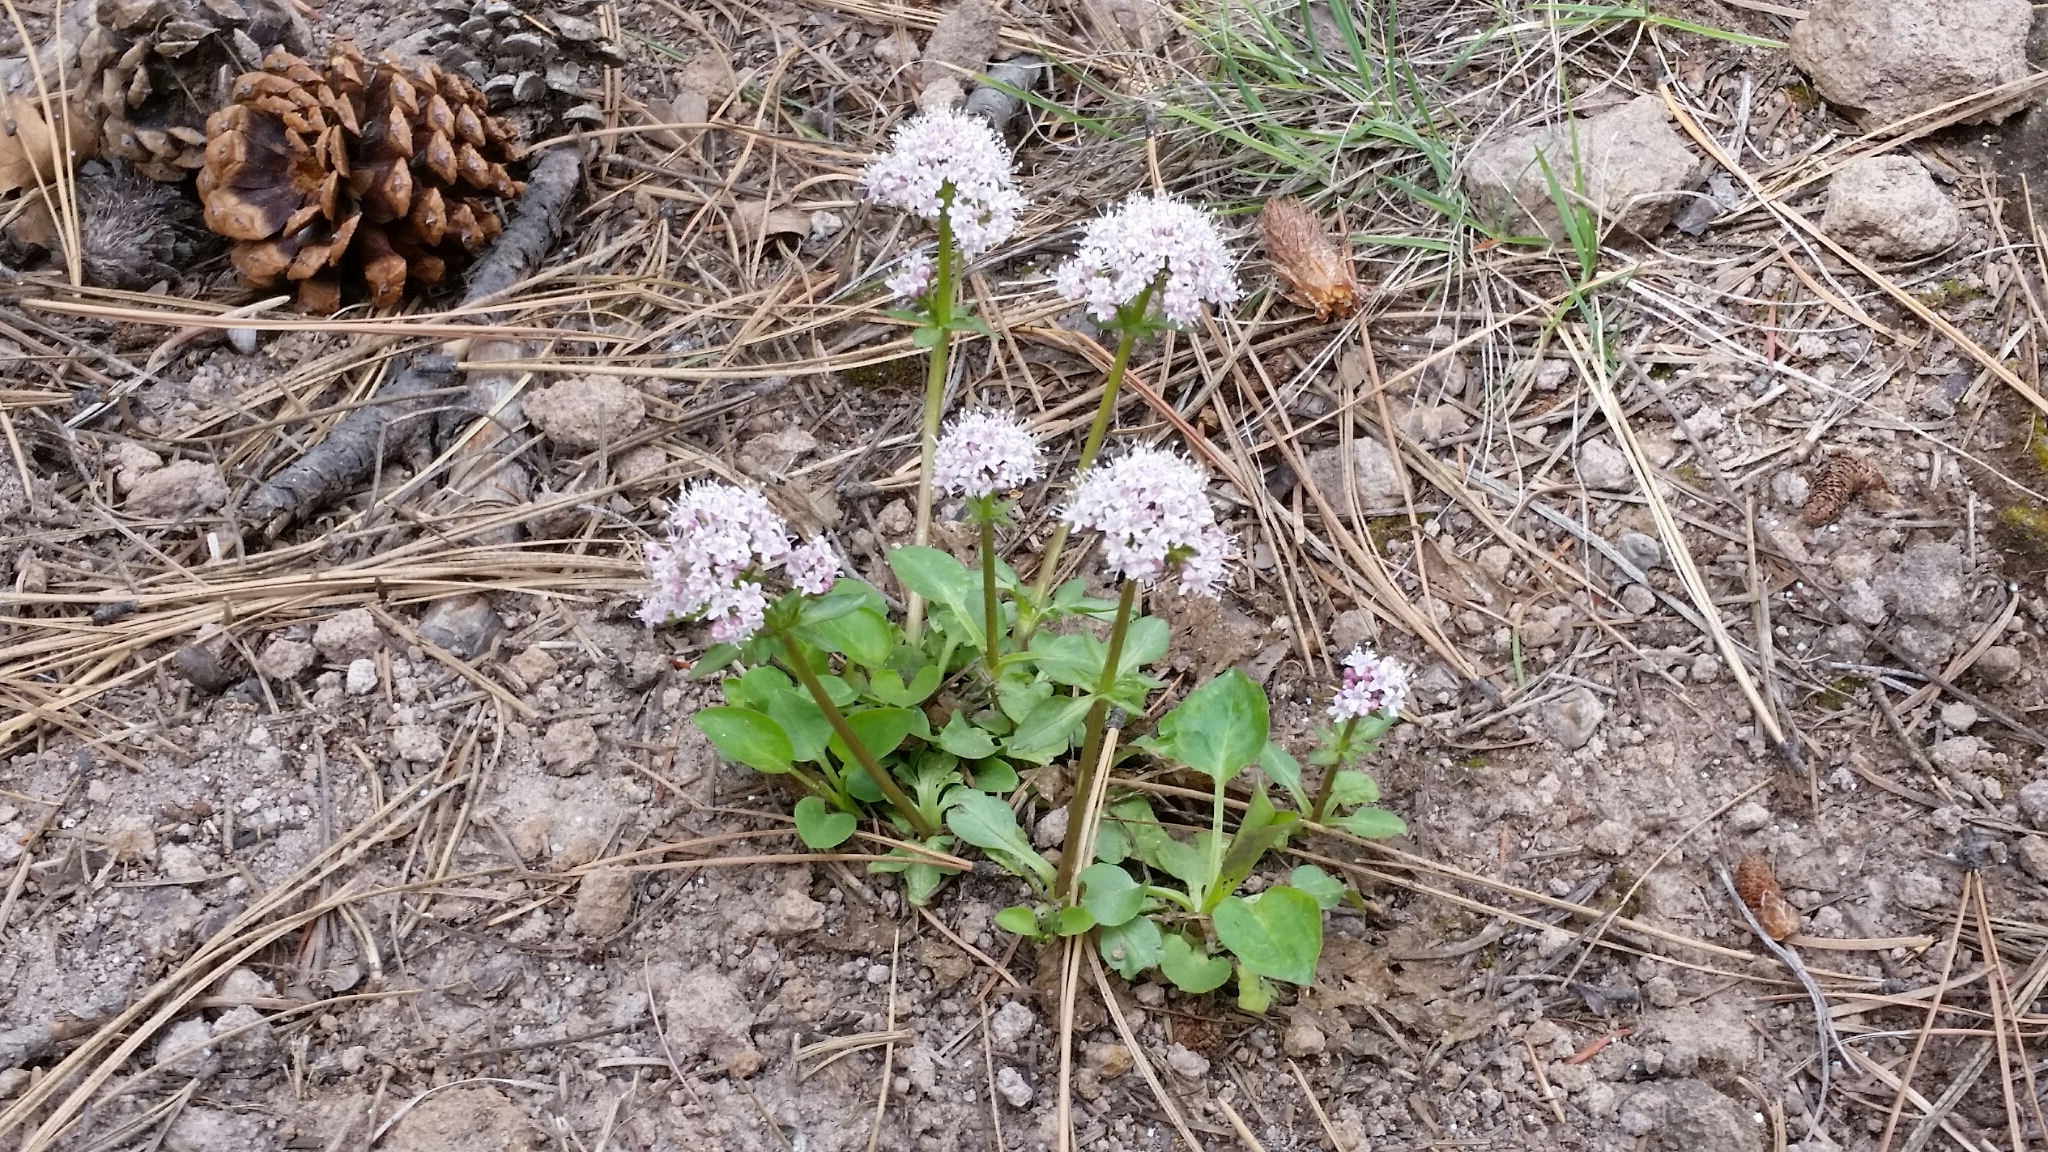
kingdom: Plantae
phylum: Tracheophyta
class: Magnoliopsida
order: Dipsacales
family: Caprifoliaceae
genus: Valeriana
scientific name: Valeriana arizonica
